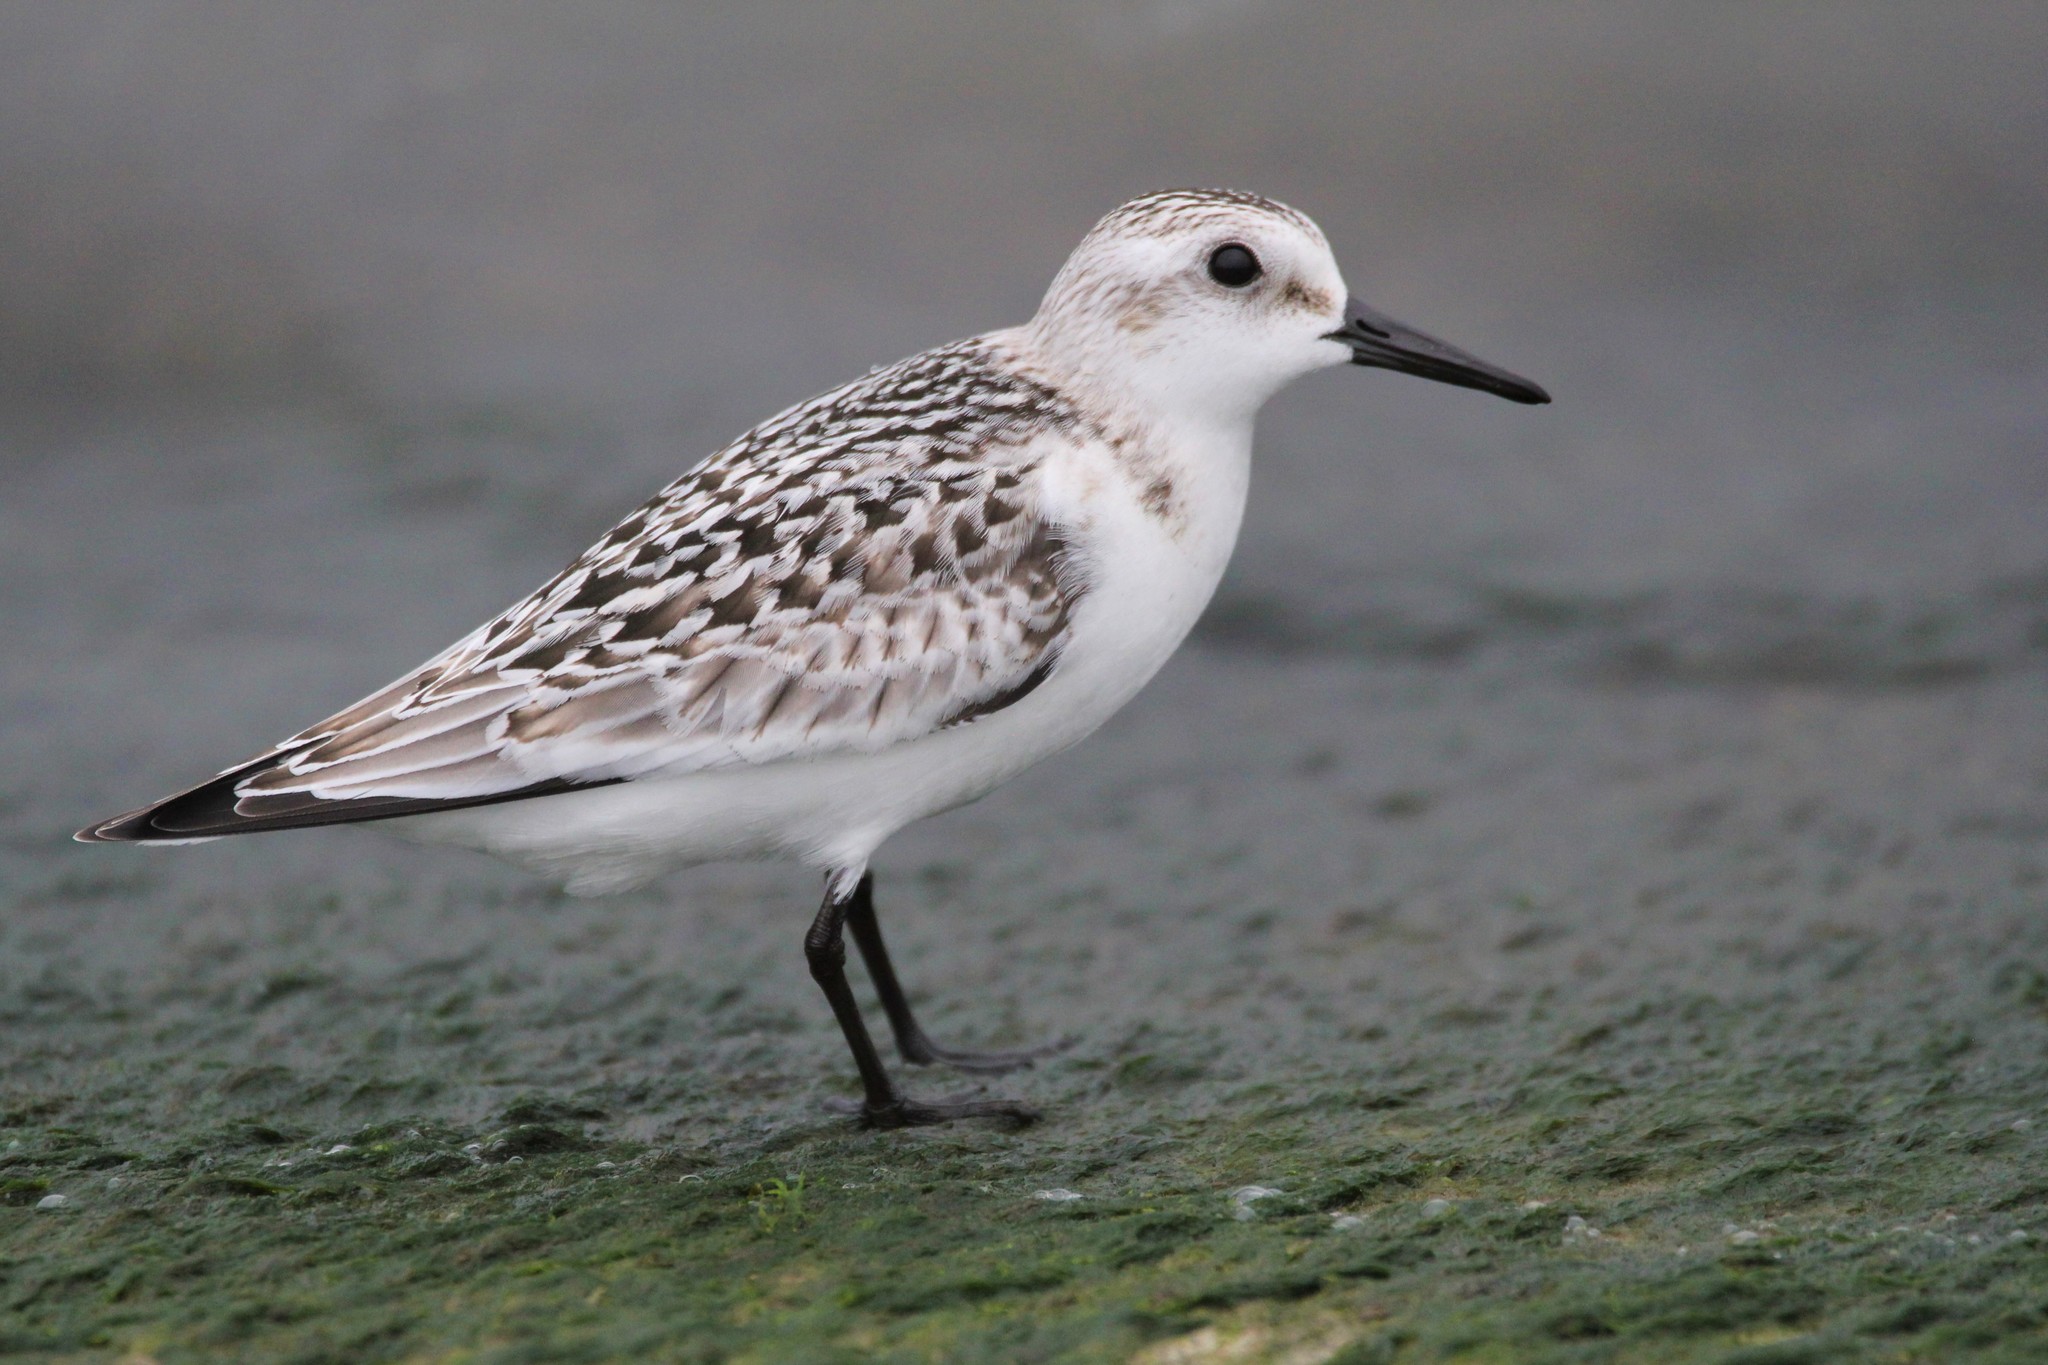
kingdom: Animalia
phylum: Chordata
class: Aves
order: Charadriiformes
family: Scolopacidae
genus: Calidris
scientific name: Calidris alba
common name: Sanderling
